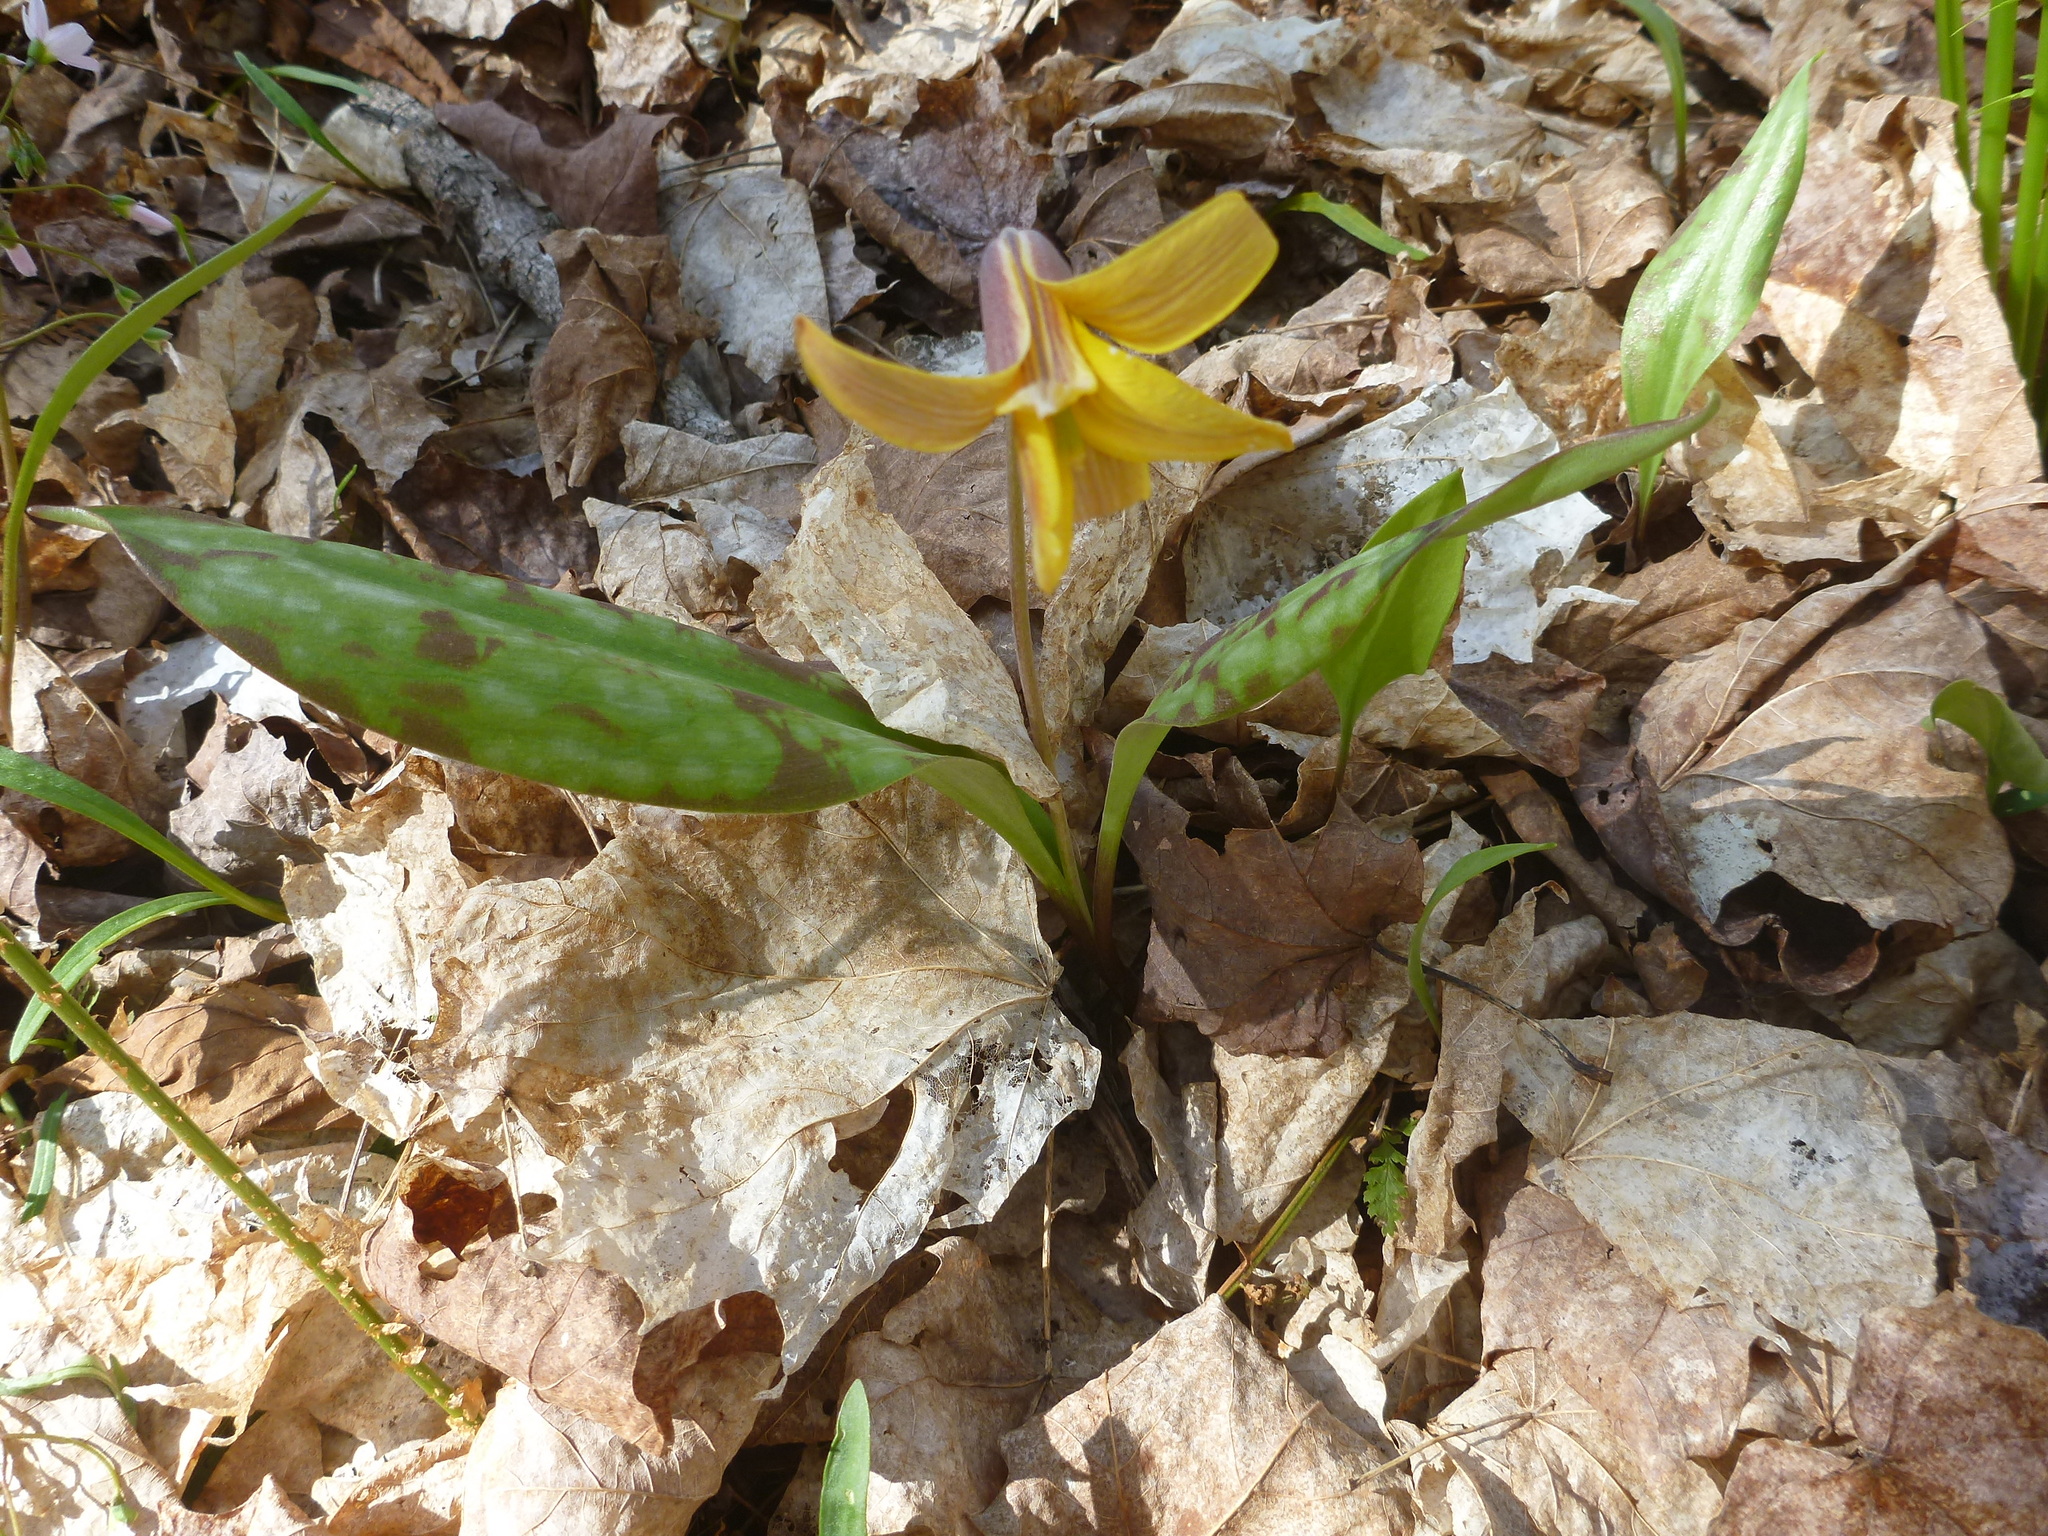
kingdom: Plantae
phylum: Tracheophyta
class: Liliopsida
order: Liliales
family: Liliaceae
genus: Erythronium
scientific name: Erythronium americanum
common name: Yellow adder's-tongue
